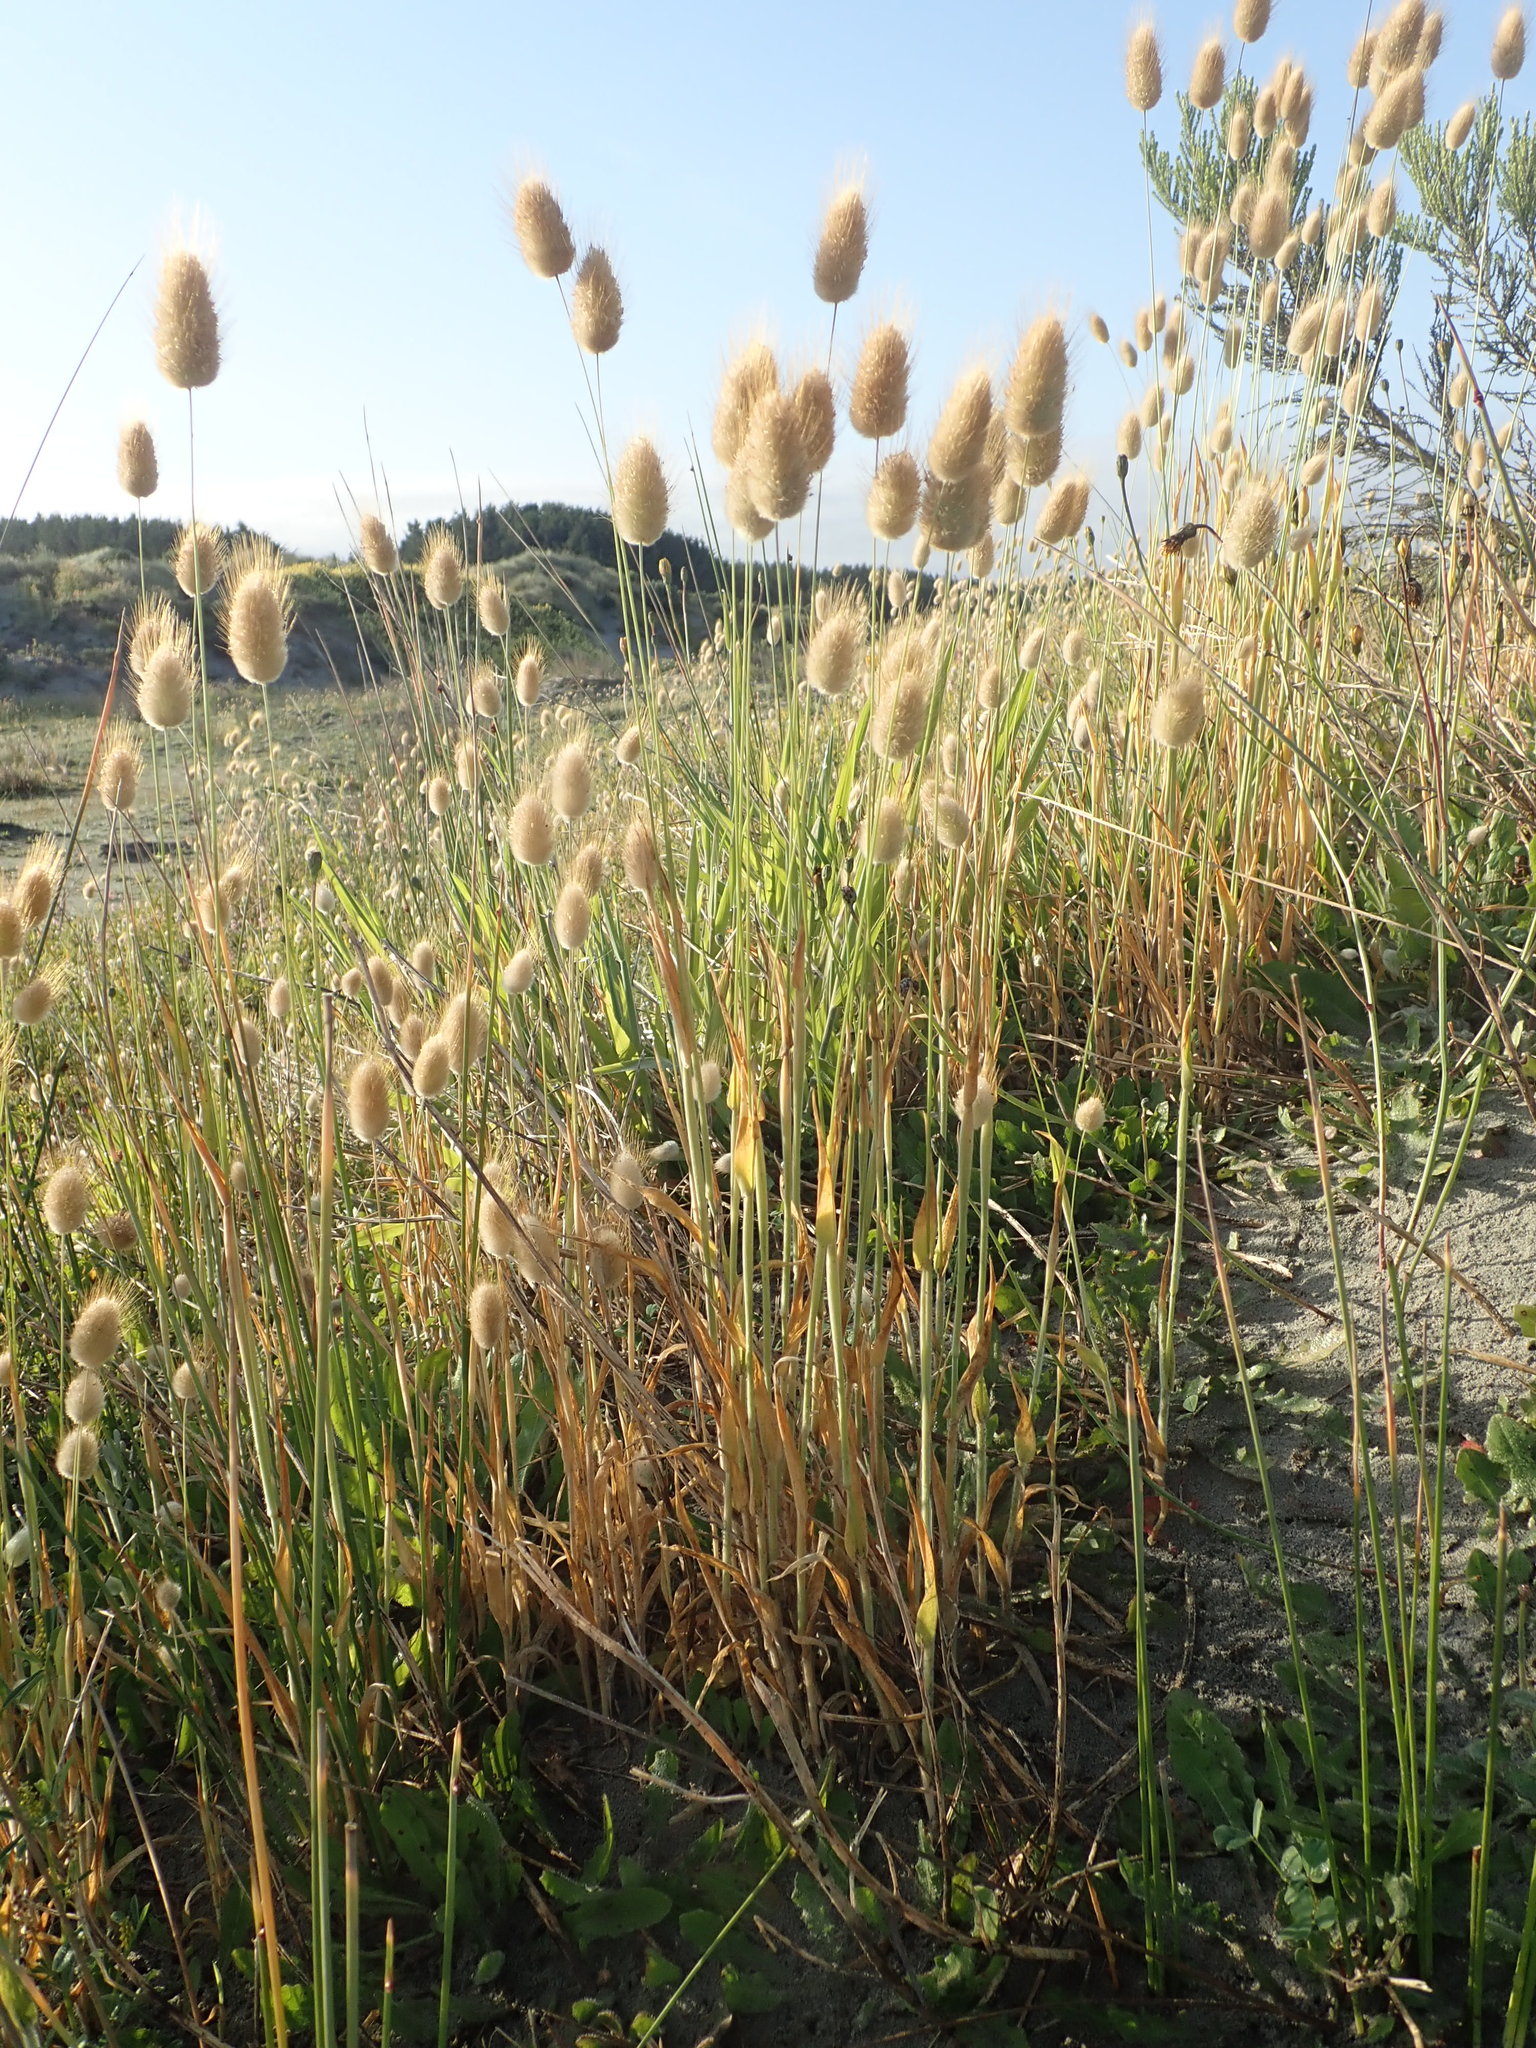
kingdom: Plantae
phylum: Tracheophyta
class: Liliopsida
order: Poales
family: Poaceae
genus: Lagurus
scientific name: Lagurus ovatus
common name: Hare's-tail
